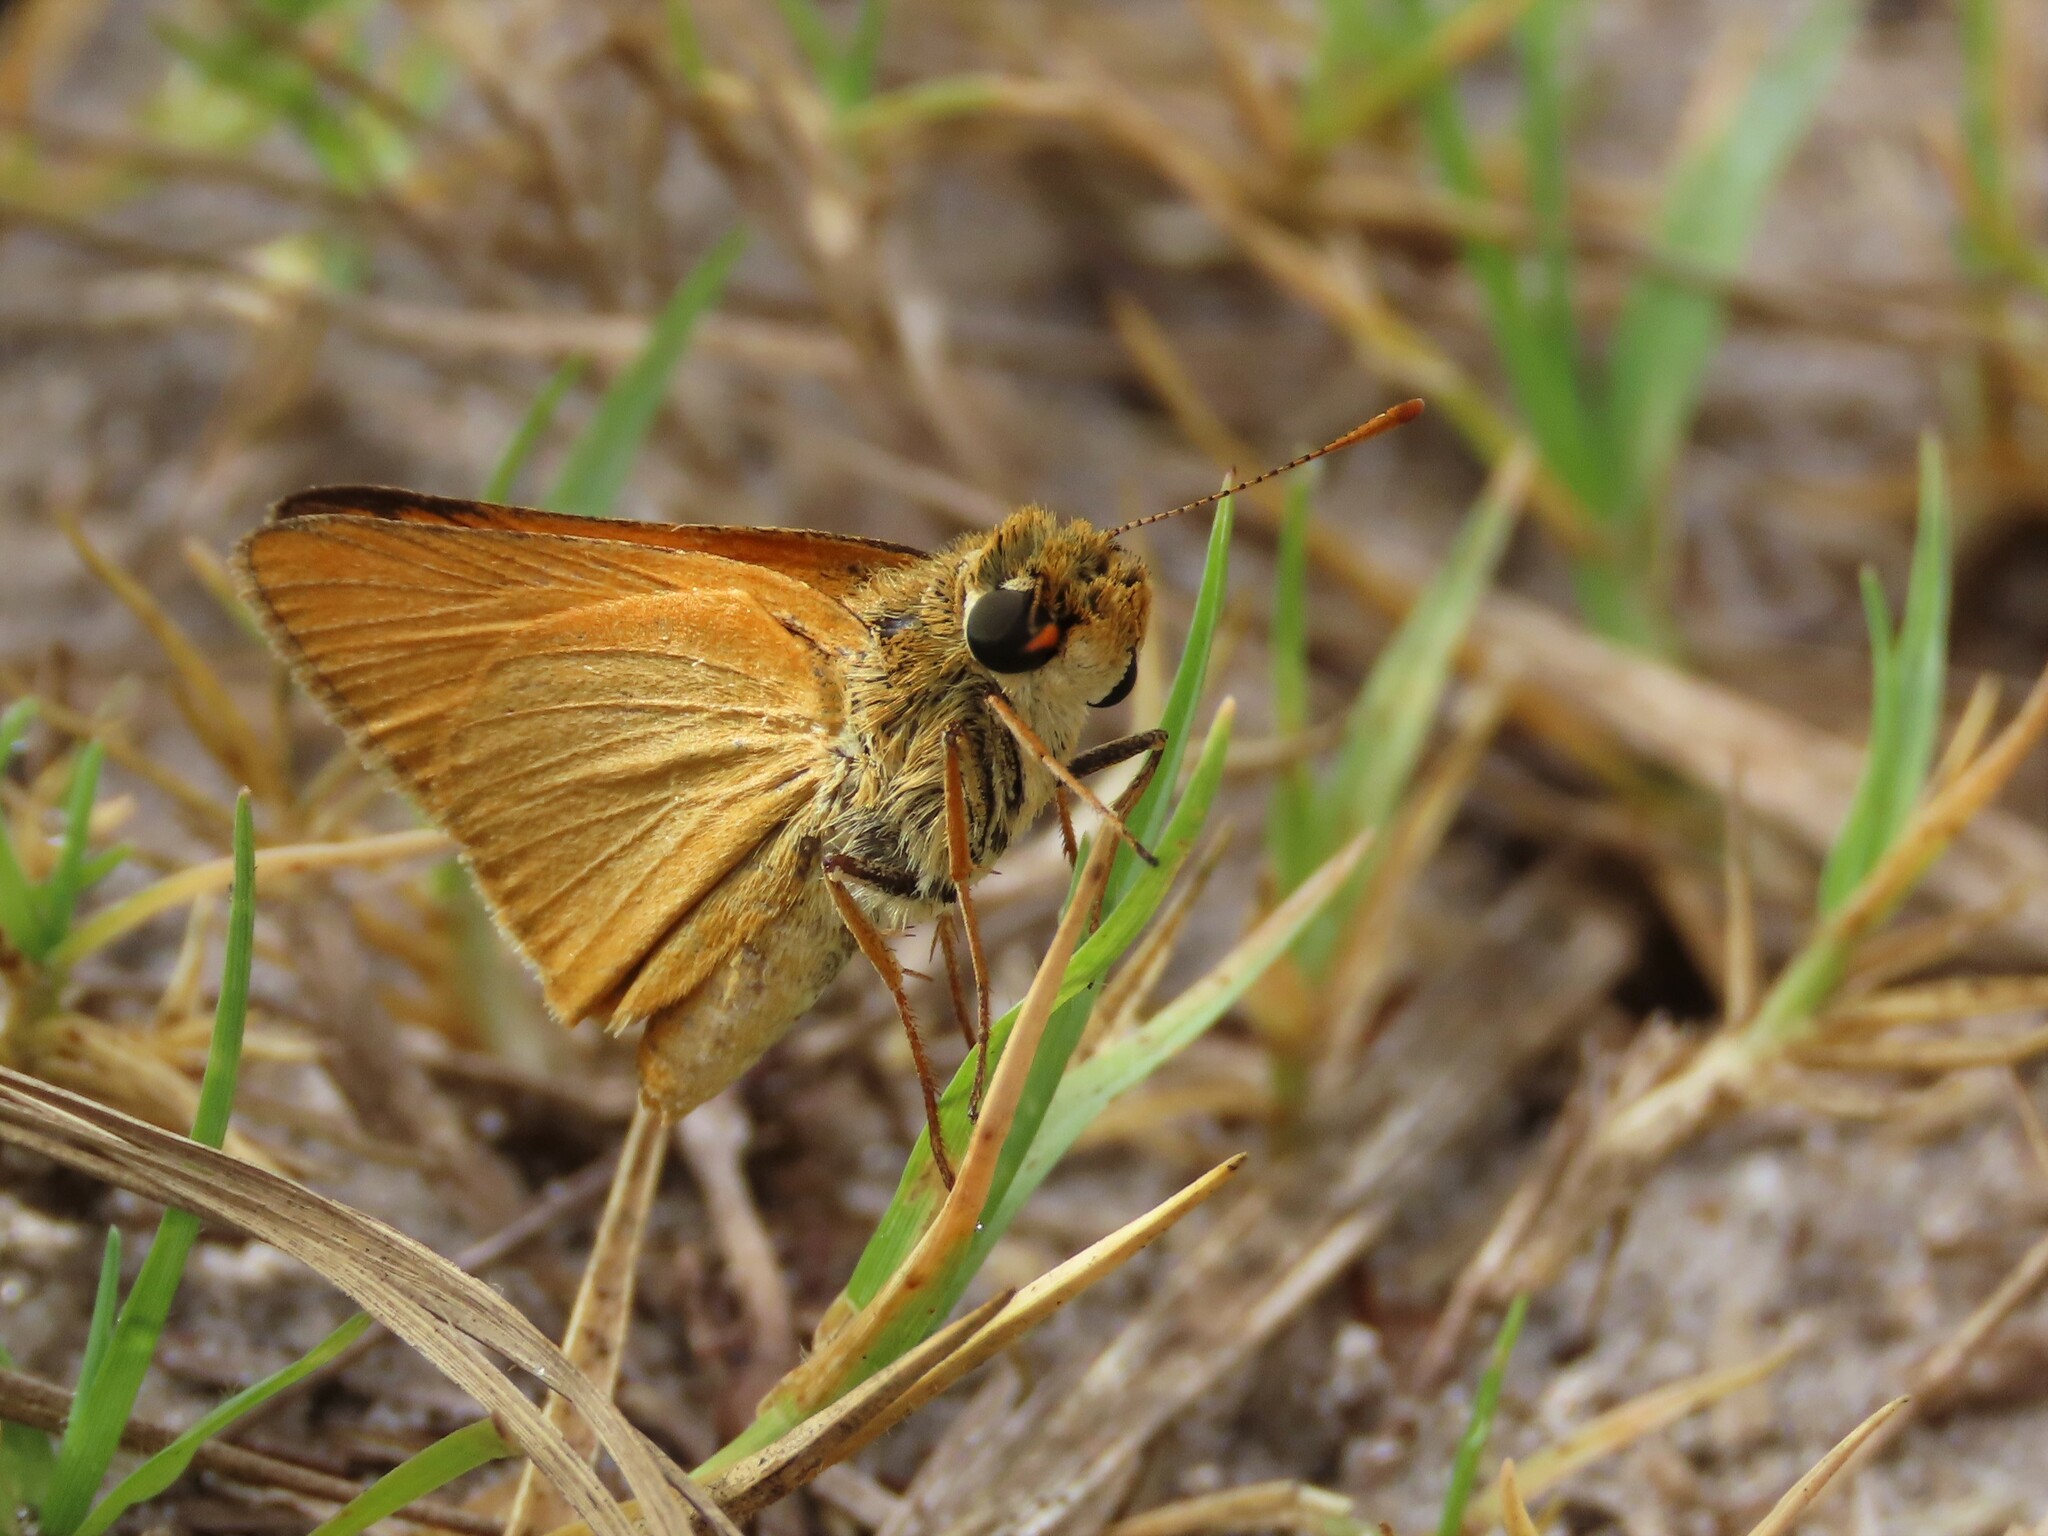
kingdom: Animalia
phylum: Arthropoda
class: Insecta
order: Lepidoptera
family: Hesperiidae
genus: Atrytone
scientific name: Atrytone delaware
